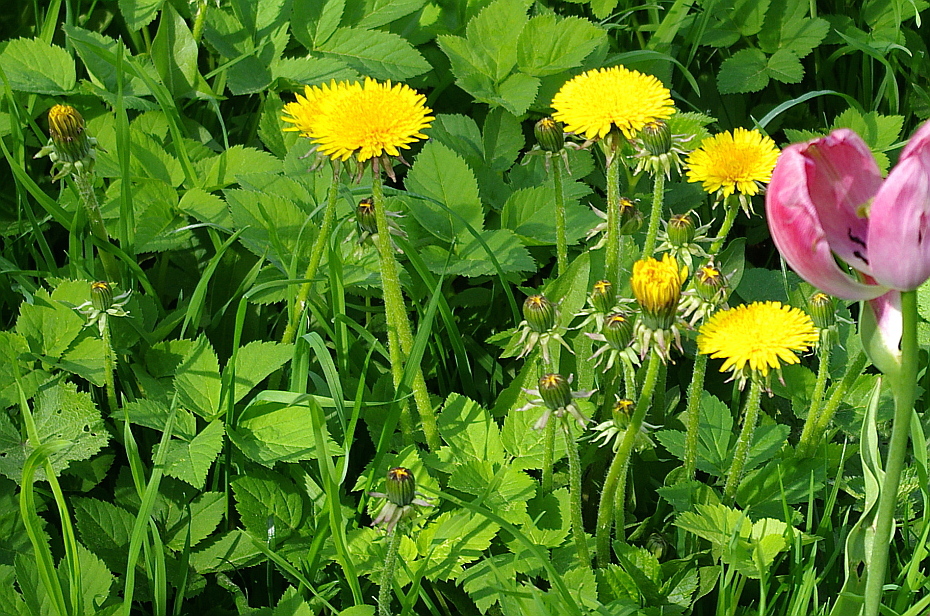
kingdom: Plantae
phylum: Tracheophyta
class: Magnoliopsida
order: Asterales
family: Asteraceae
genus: Taraxacum
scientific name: Taraxacum officinale
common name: Common dandelion
